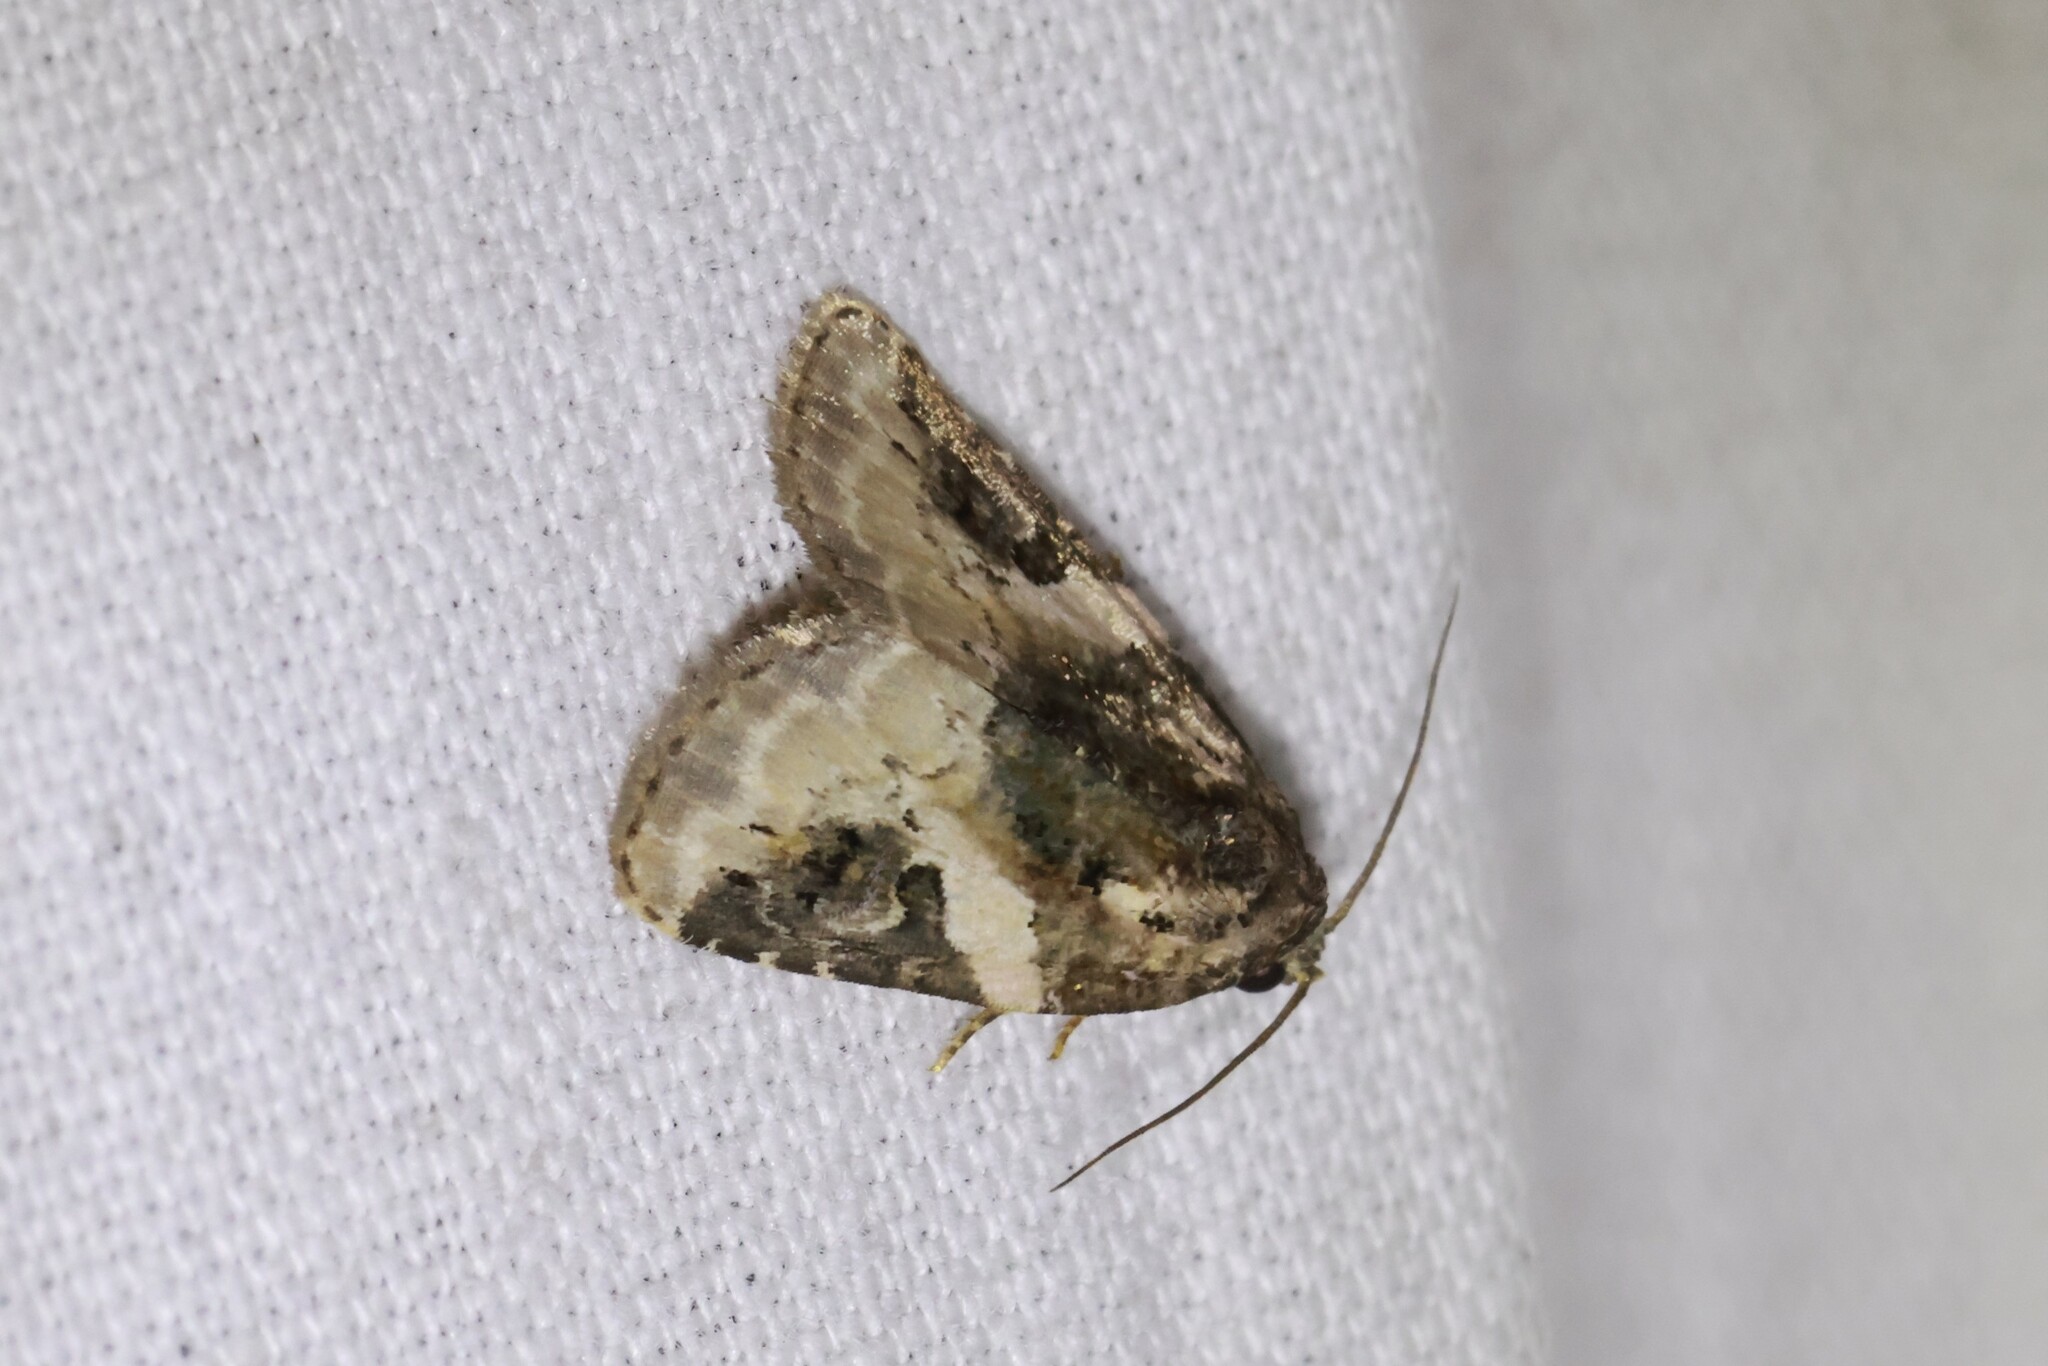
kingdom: Animalia
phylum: Arthropoda
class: Insecta
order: Lepidoptera
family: Noctuidae
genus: Pseudeustrotia
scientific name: Pseudeustrotia carneola
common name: Pink-barred lithacodia moth
